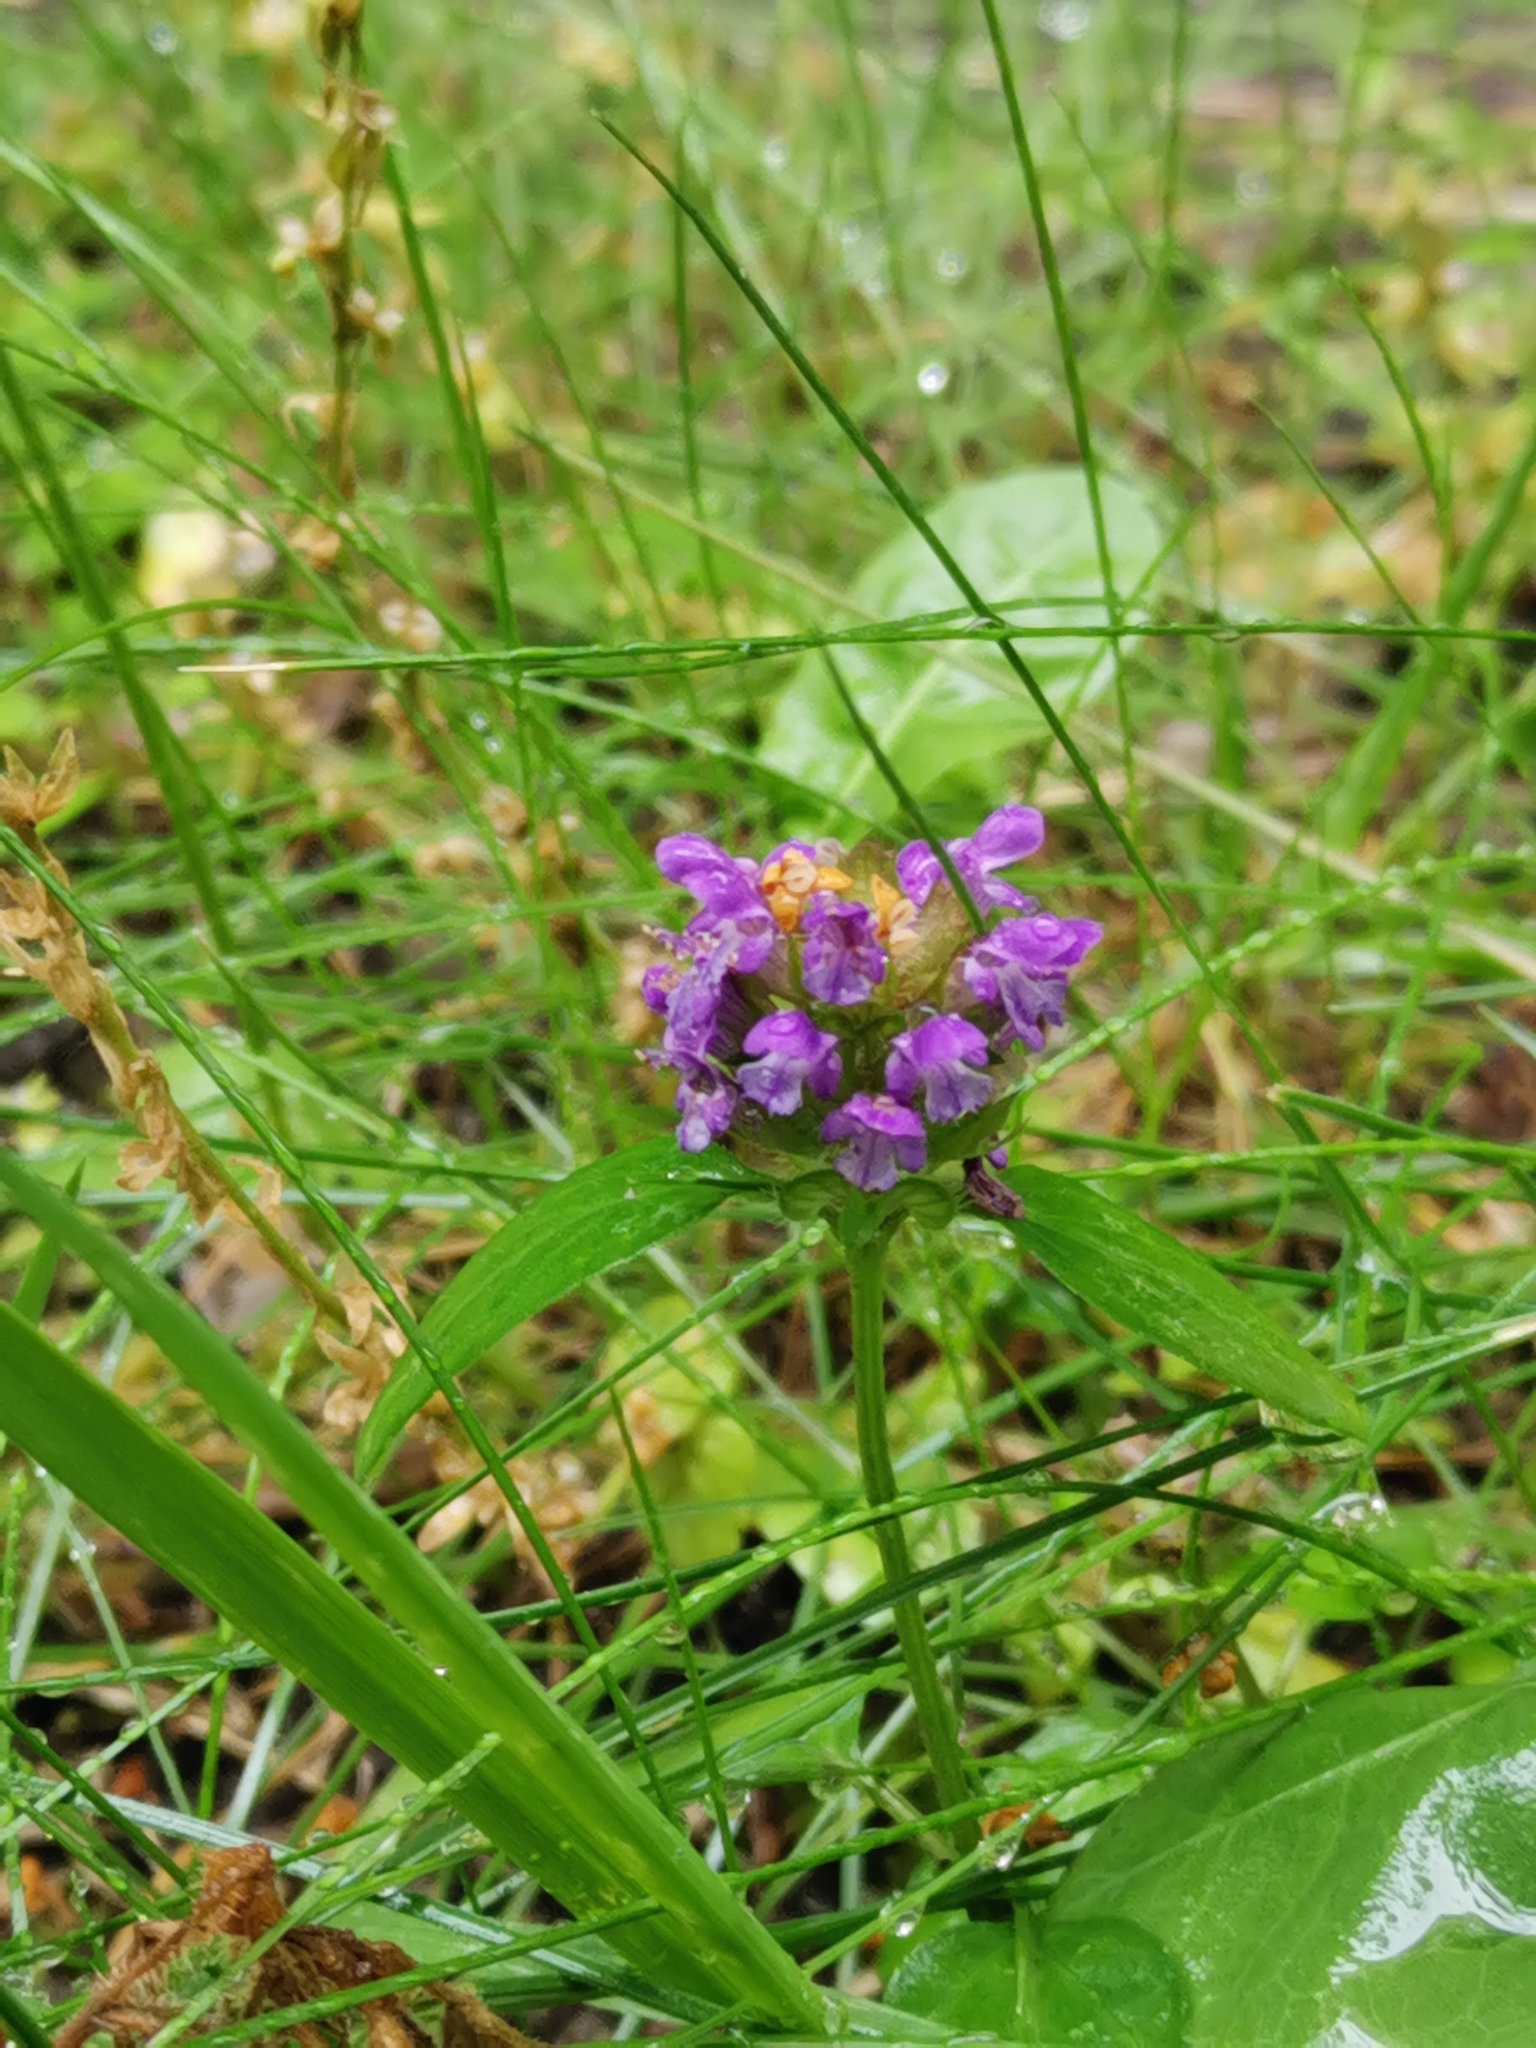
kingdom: Plantae
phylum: Tracheophyta
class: Magnoliopsida
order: Lamiales
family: Lamiaceae
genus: Prunella
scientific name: Prunella vulgaris
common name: Heal-all
